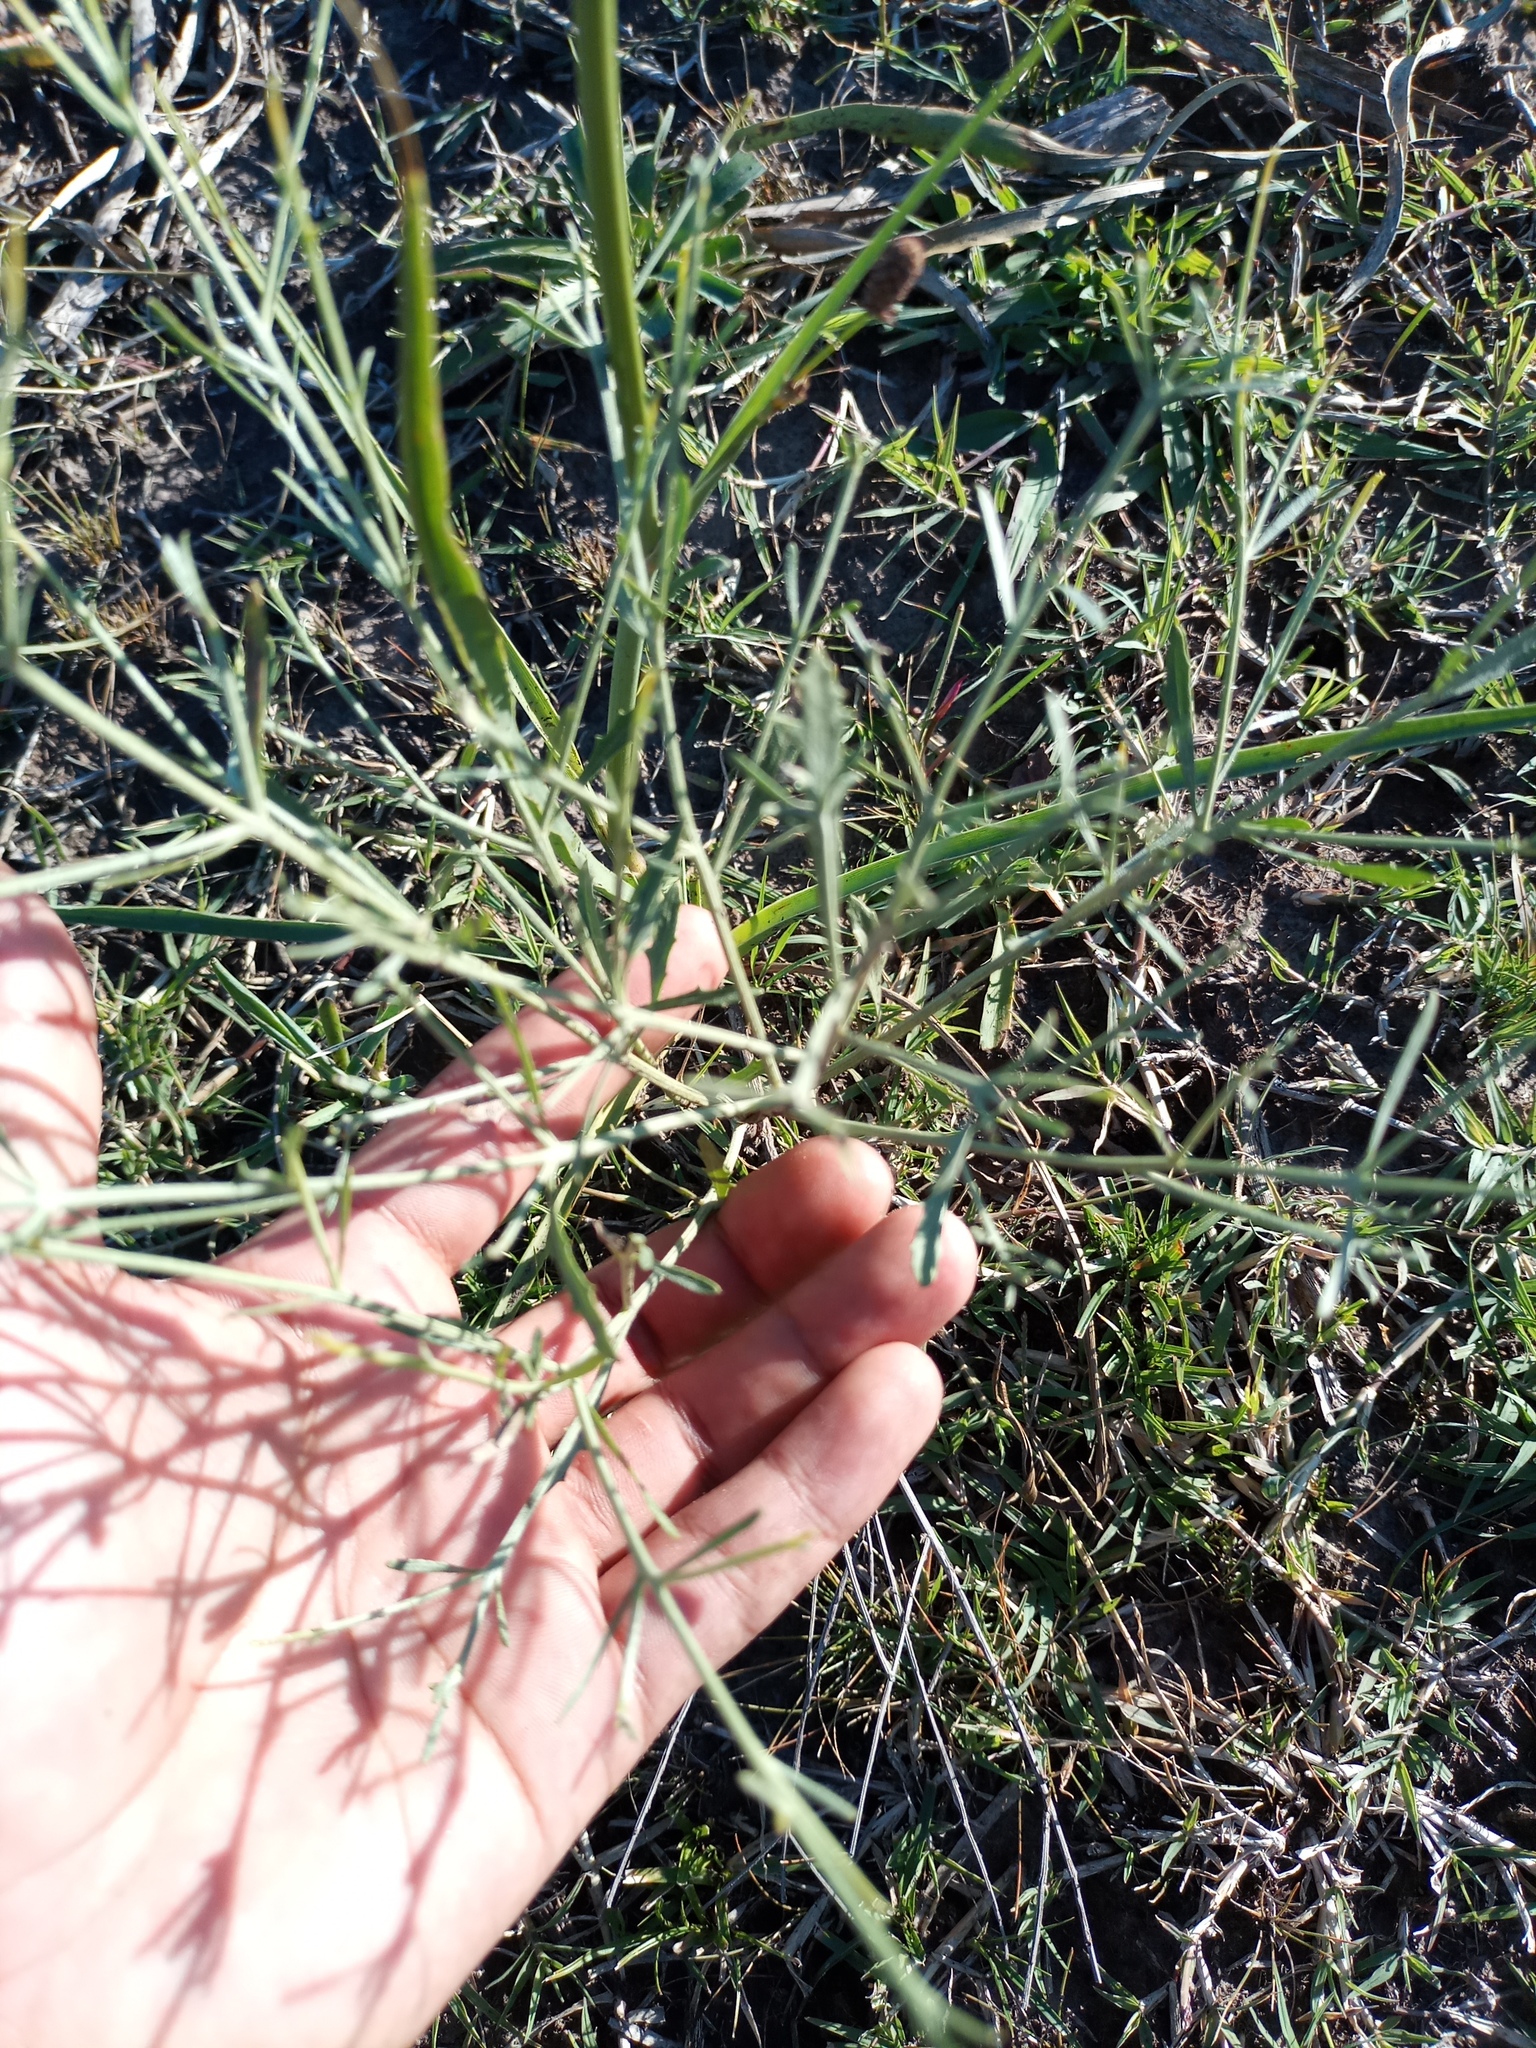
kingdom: Plantae
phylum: Tracheophyta
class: Magnoliopsida
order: Apiales
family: Apiaceae
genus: Eryngium
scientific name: Eryngium ebracteatum
